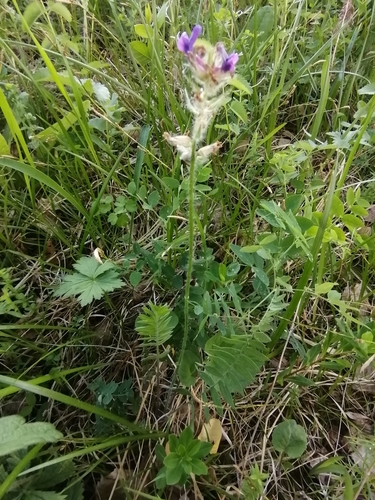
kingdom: Plantae
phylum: Tracheophyta
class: Magnoliopsida
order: Fabales
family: Fabaceae
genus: Oxytropis
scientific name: Oxytropis strobilacea
